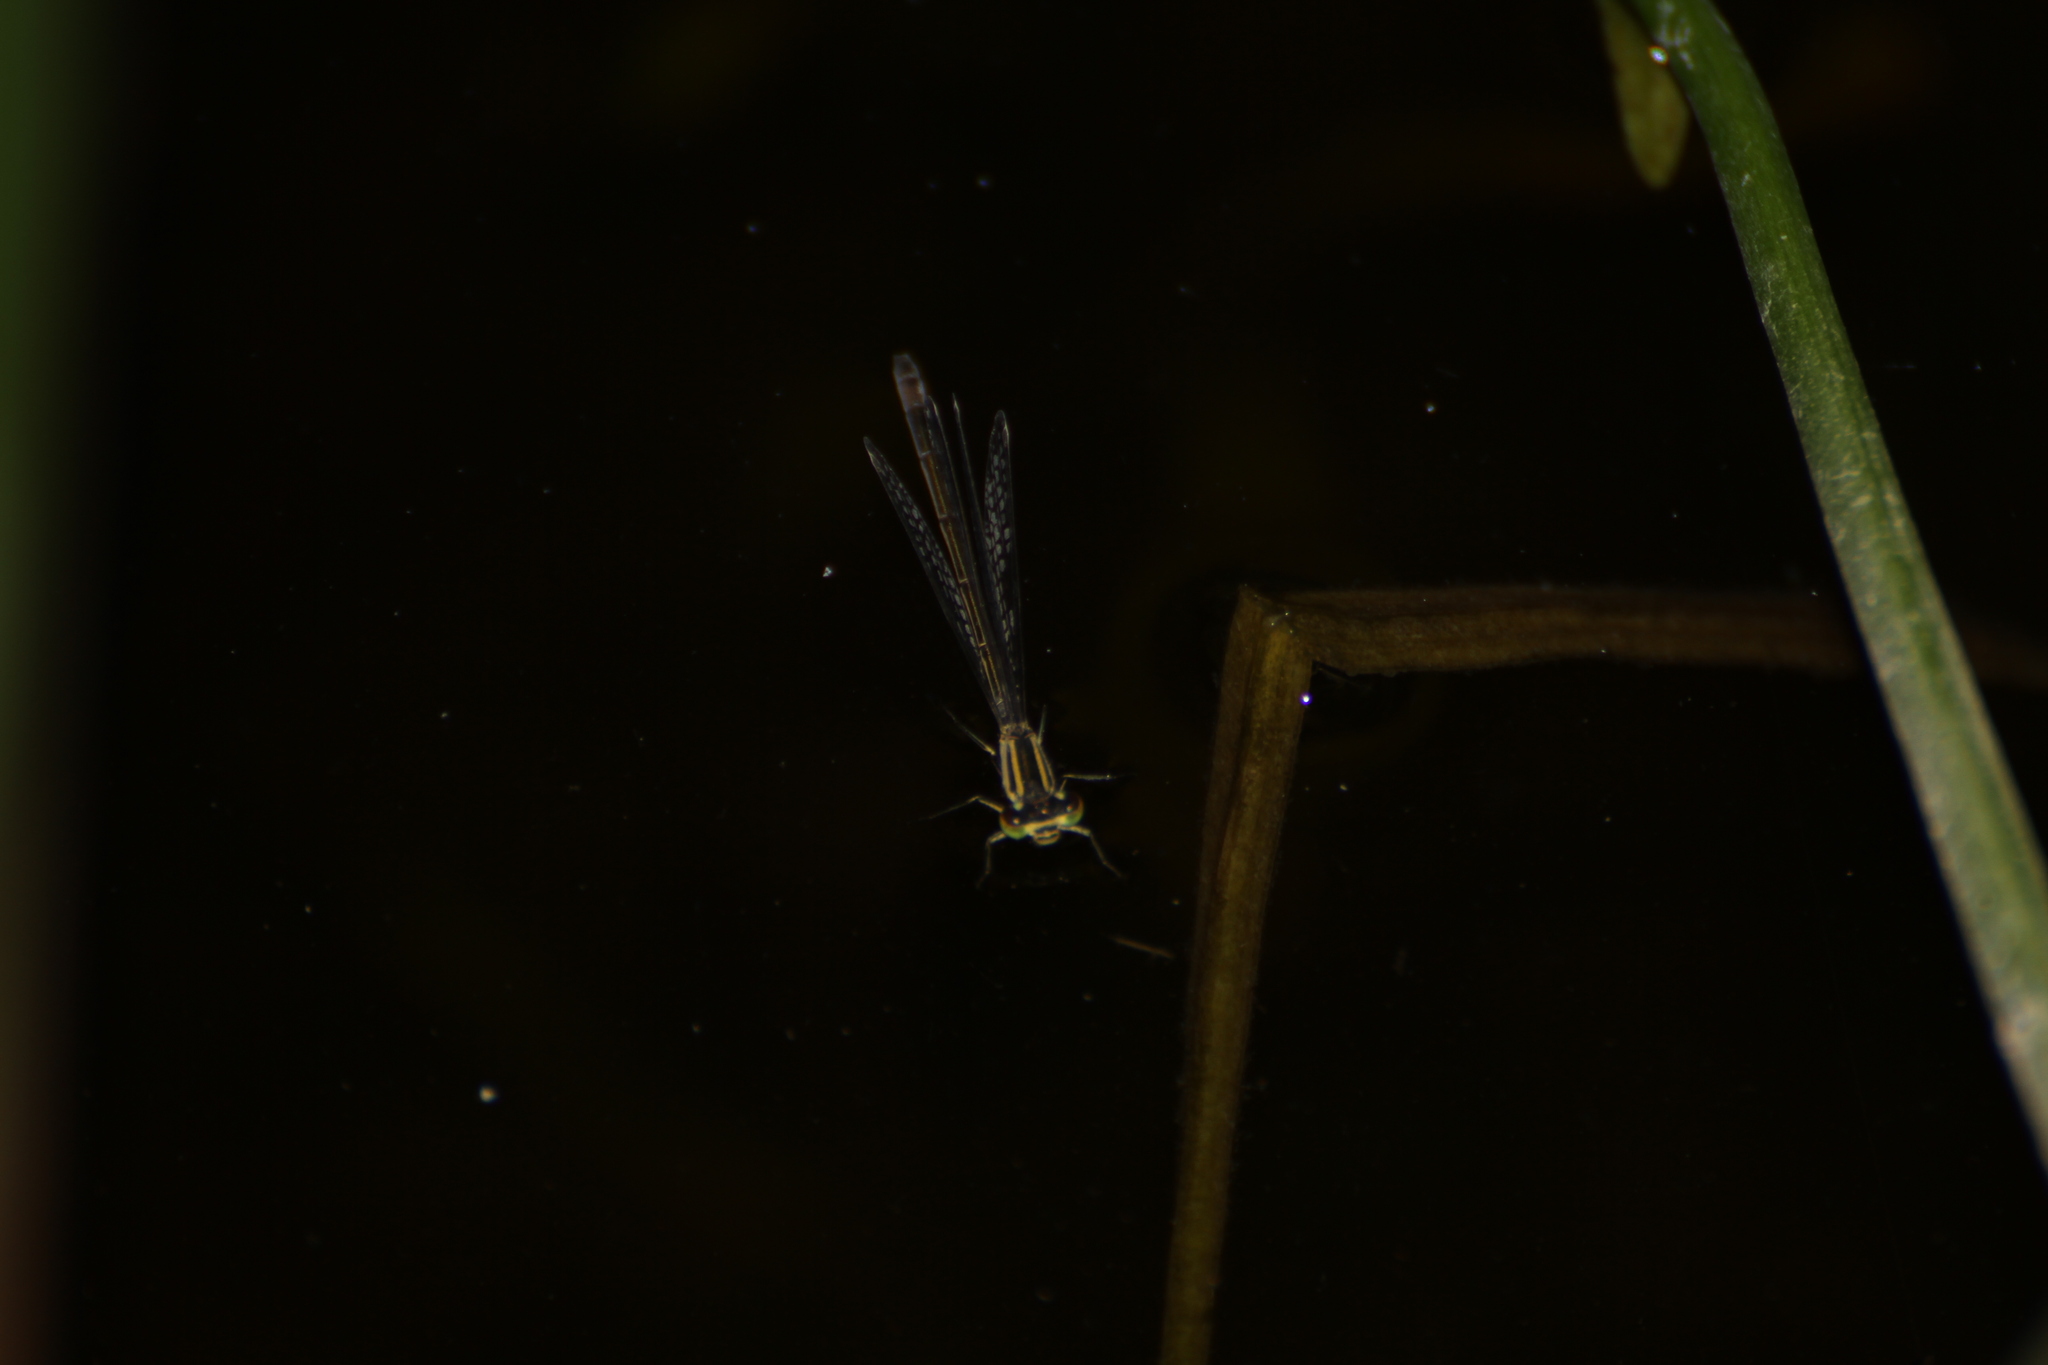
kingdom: Animalia
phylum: Arthropoda
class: Insecta
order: Odonata
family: Coenagrionidae
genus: Ischnura
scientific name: Ischnura elegans
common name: Blue-tailed damselfly
